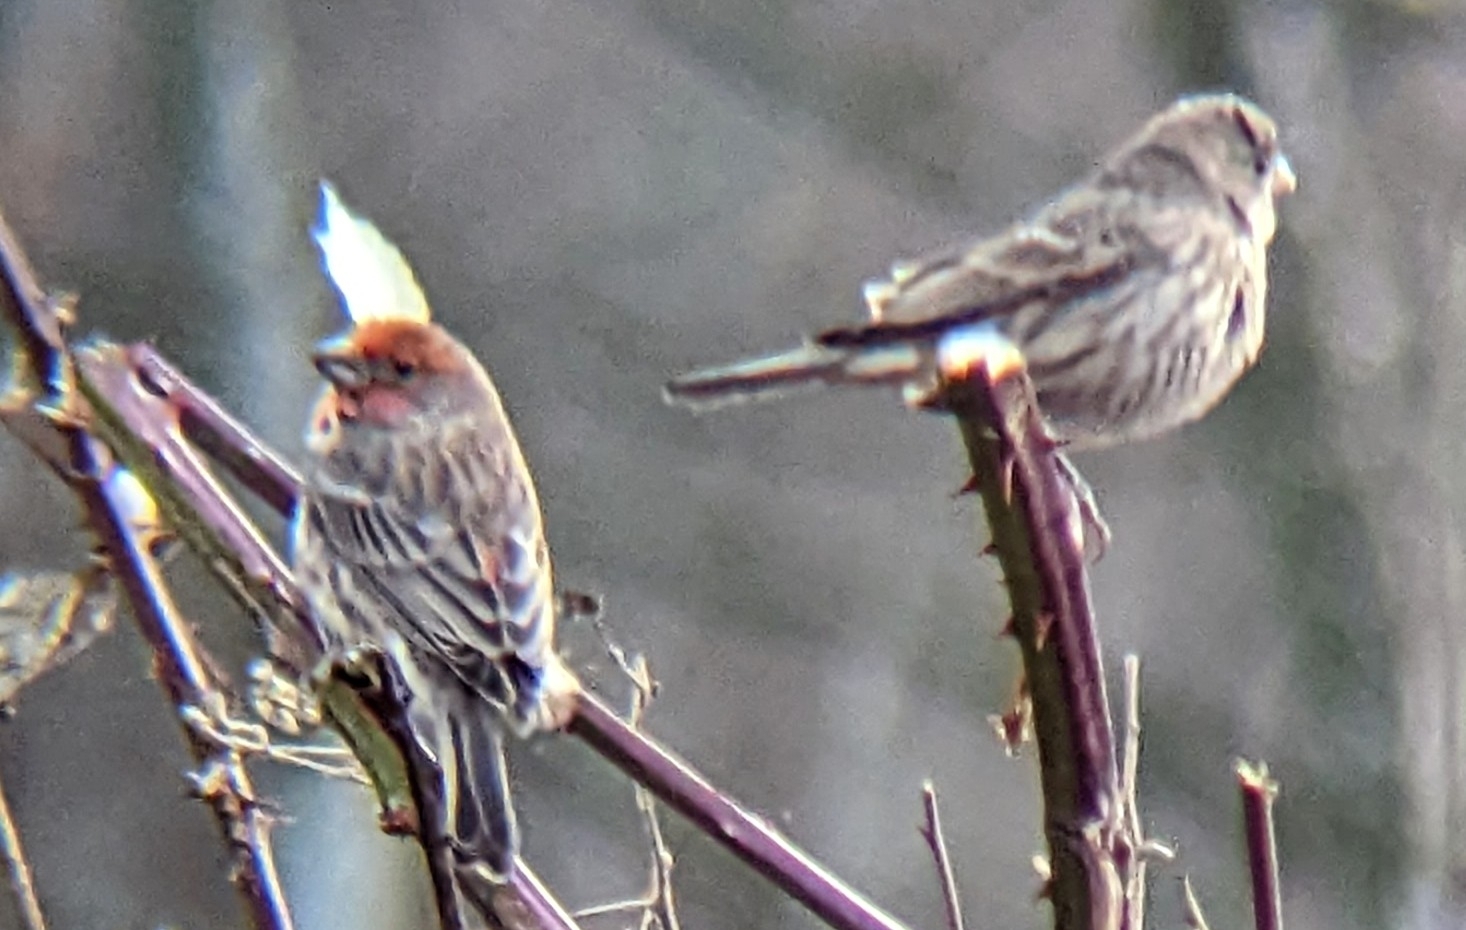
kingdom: Animalia
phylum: Chordata
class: Aves
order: Passeriformes
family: Fringillidae
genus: Haemorhous
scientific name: Haemorhous mexicanus
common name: House finch
